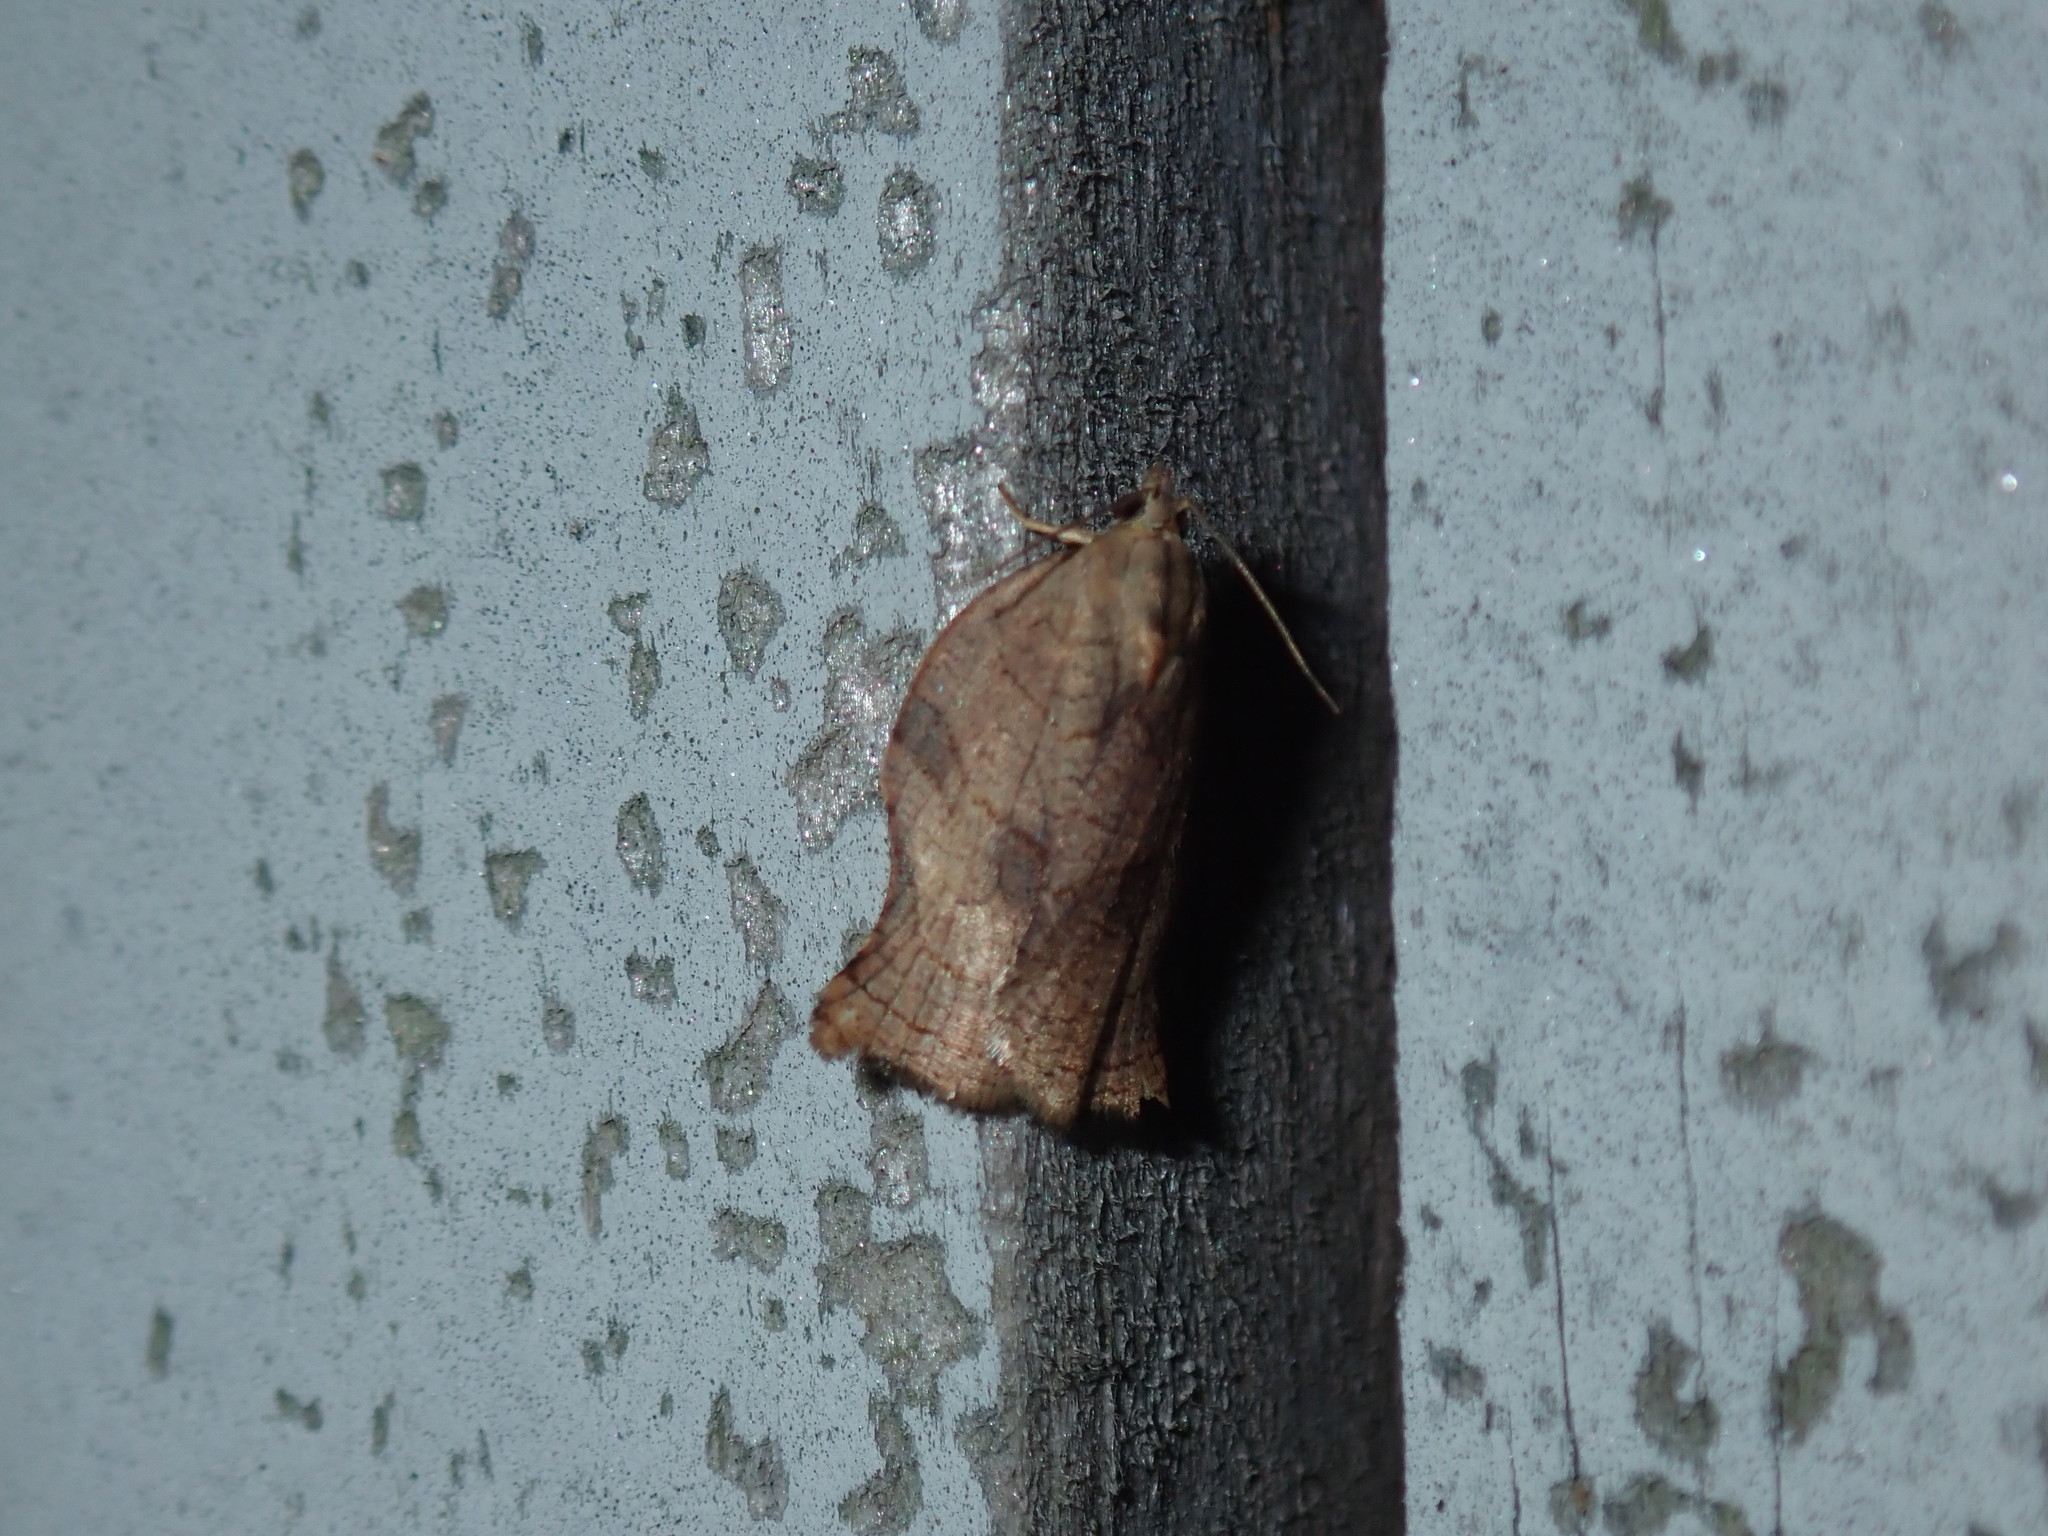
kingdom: Animalia
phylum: Arthropoda
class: Insecta
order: Lepidoptera
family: Tortricidae
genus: Archips
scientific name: Archips purpurana
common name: Omnivorous leafroller
